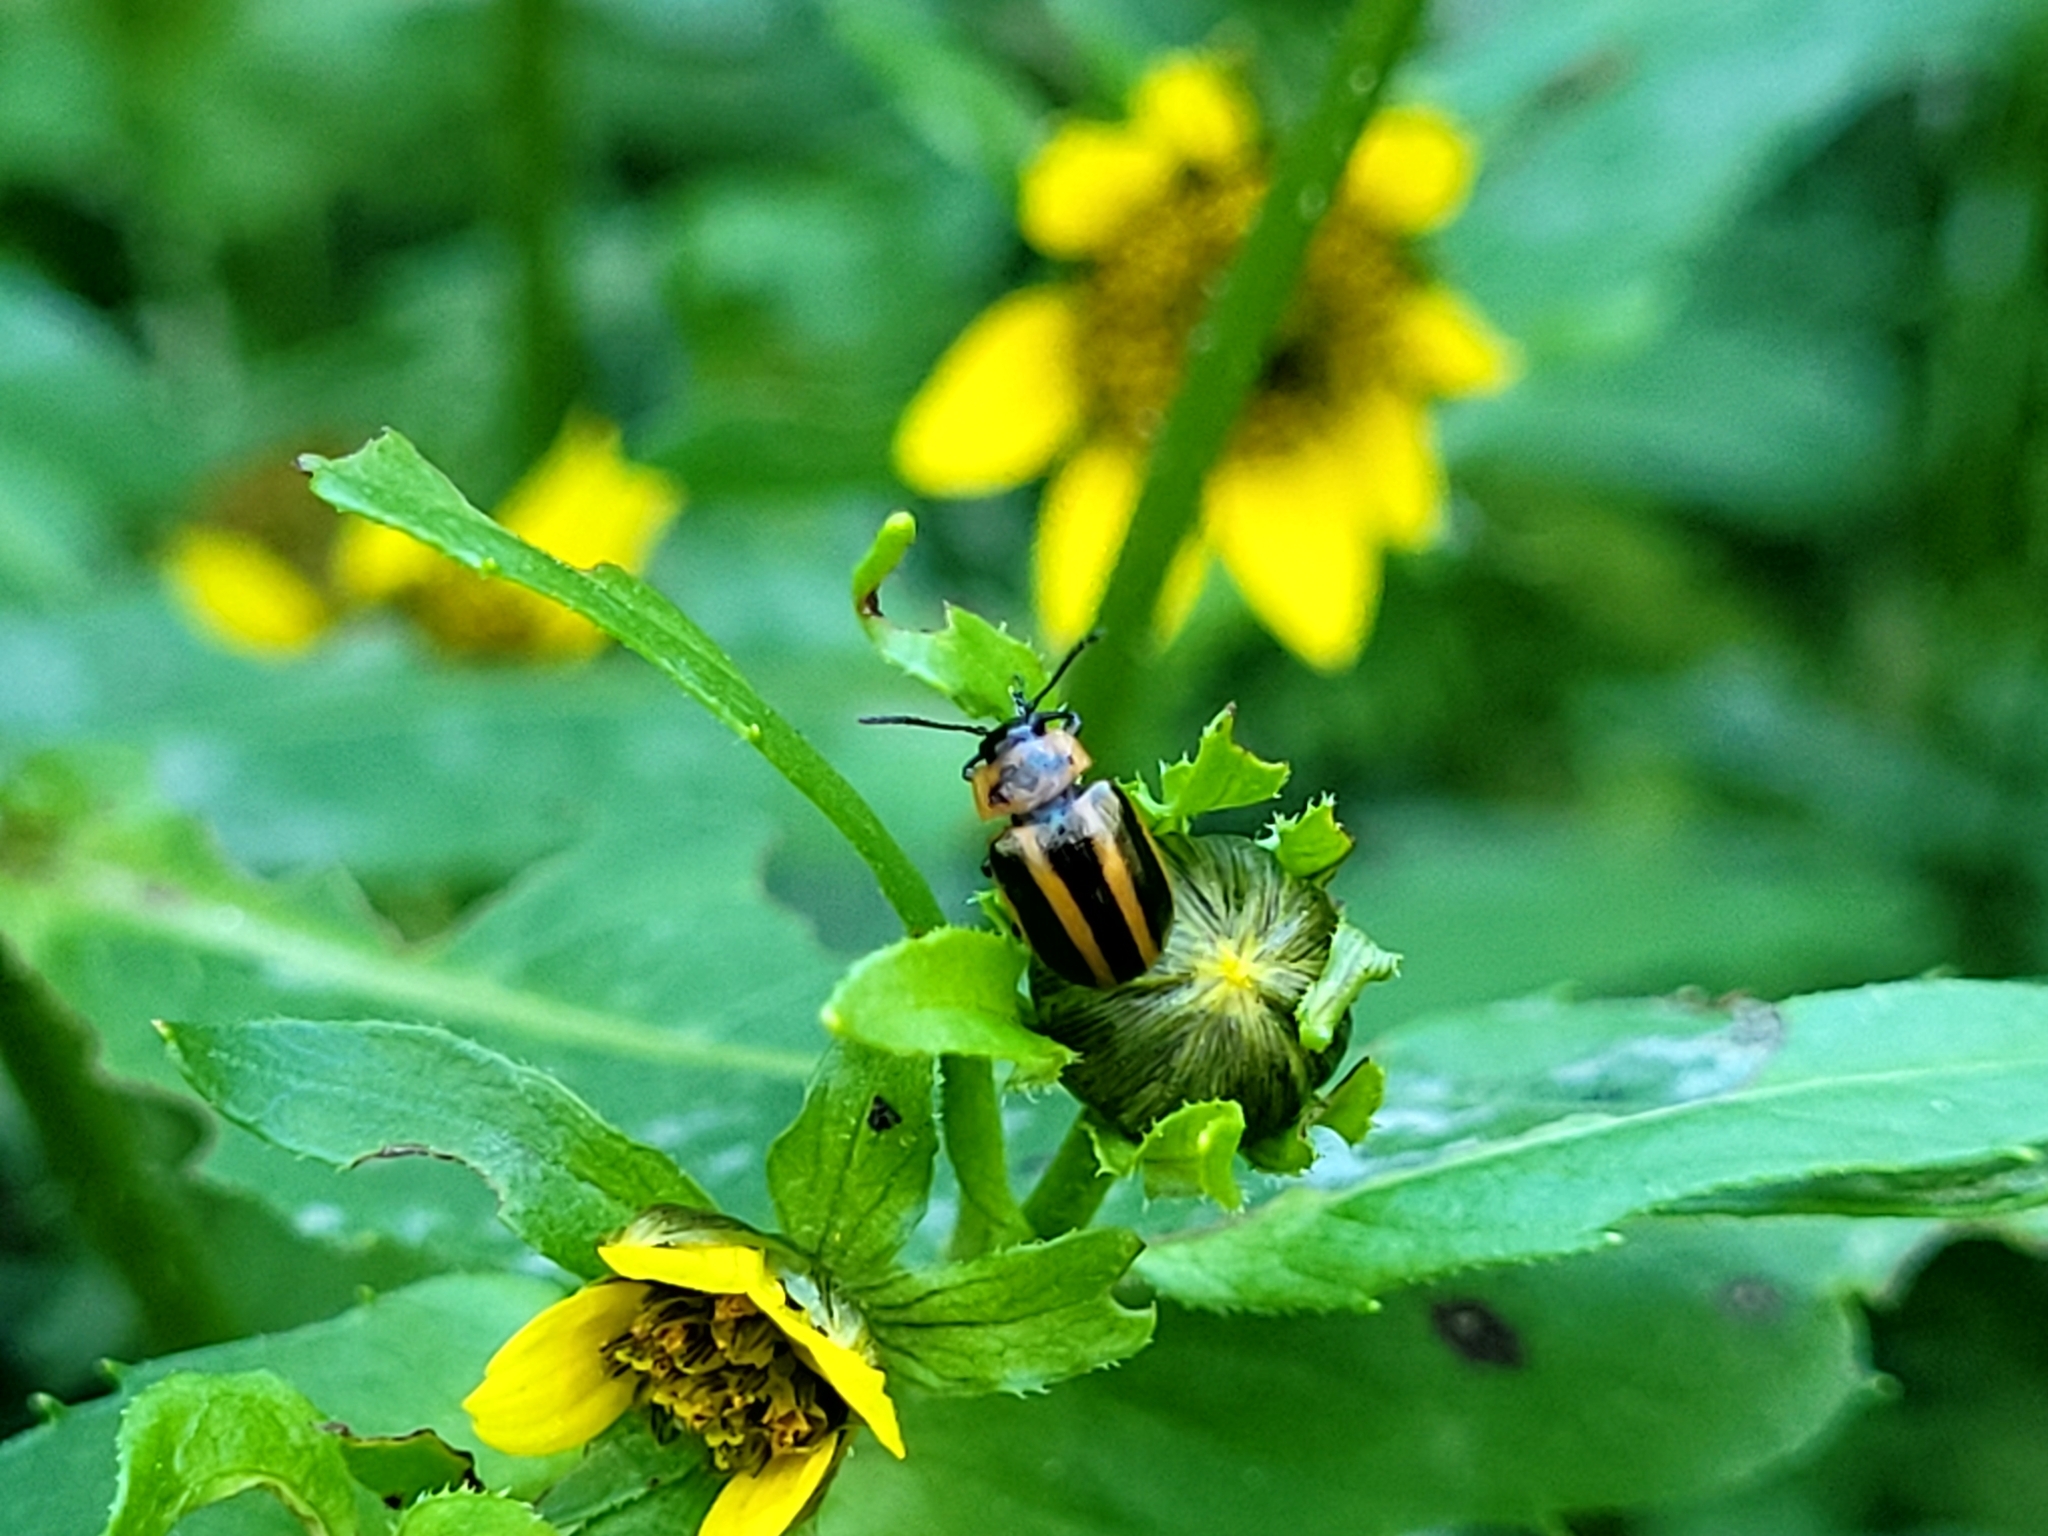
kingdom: Animalia
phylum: Arthropoda
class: Insecta
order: Coleoptera
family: Chrysomelidae
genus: Calligrapha
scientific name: Calligrapha californica
